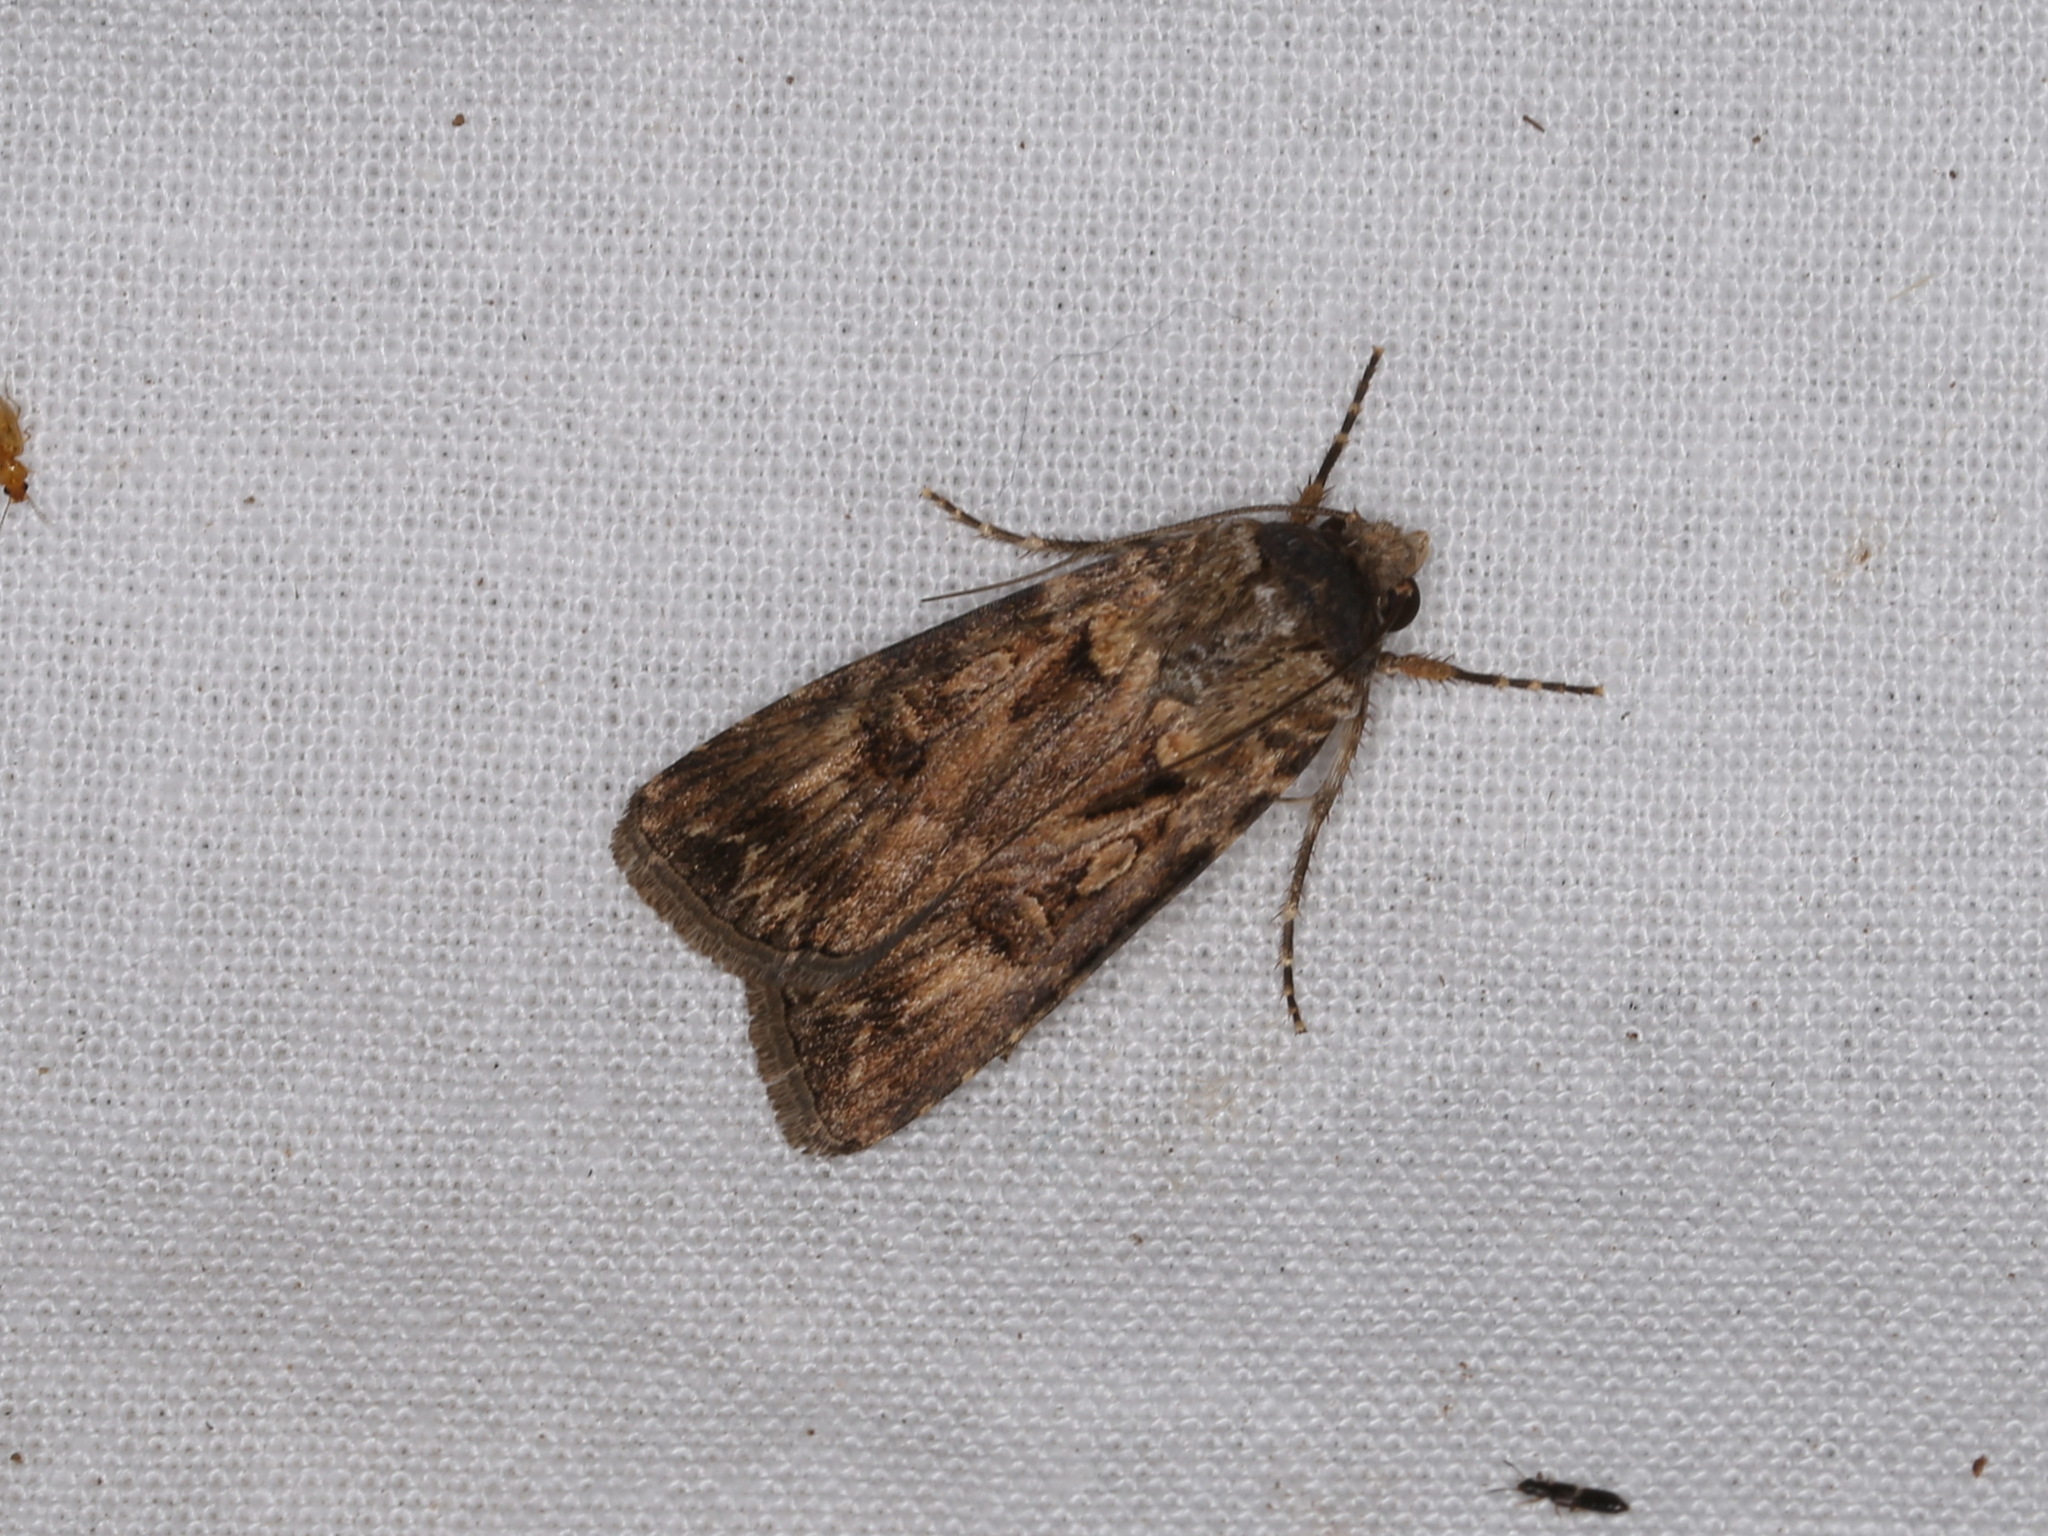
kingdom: Animalia
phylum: Arthropoda
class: Insecta
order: Lepidoptera
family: Noctuidae
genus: Agrotis
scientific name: Agrotis munda
